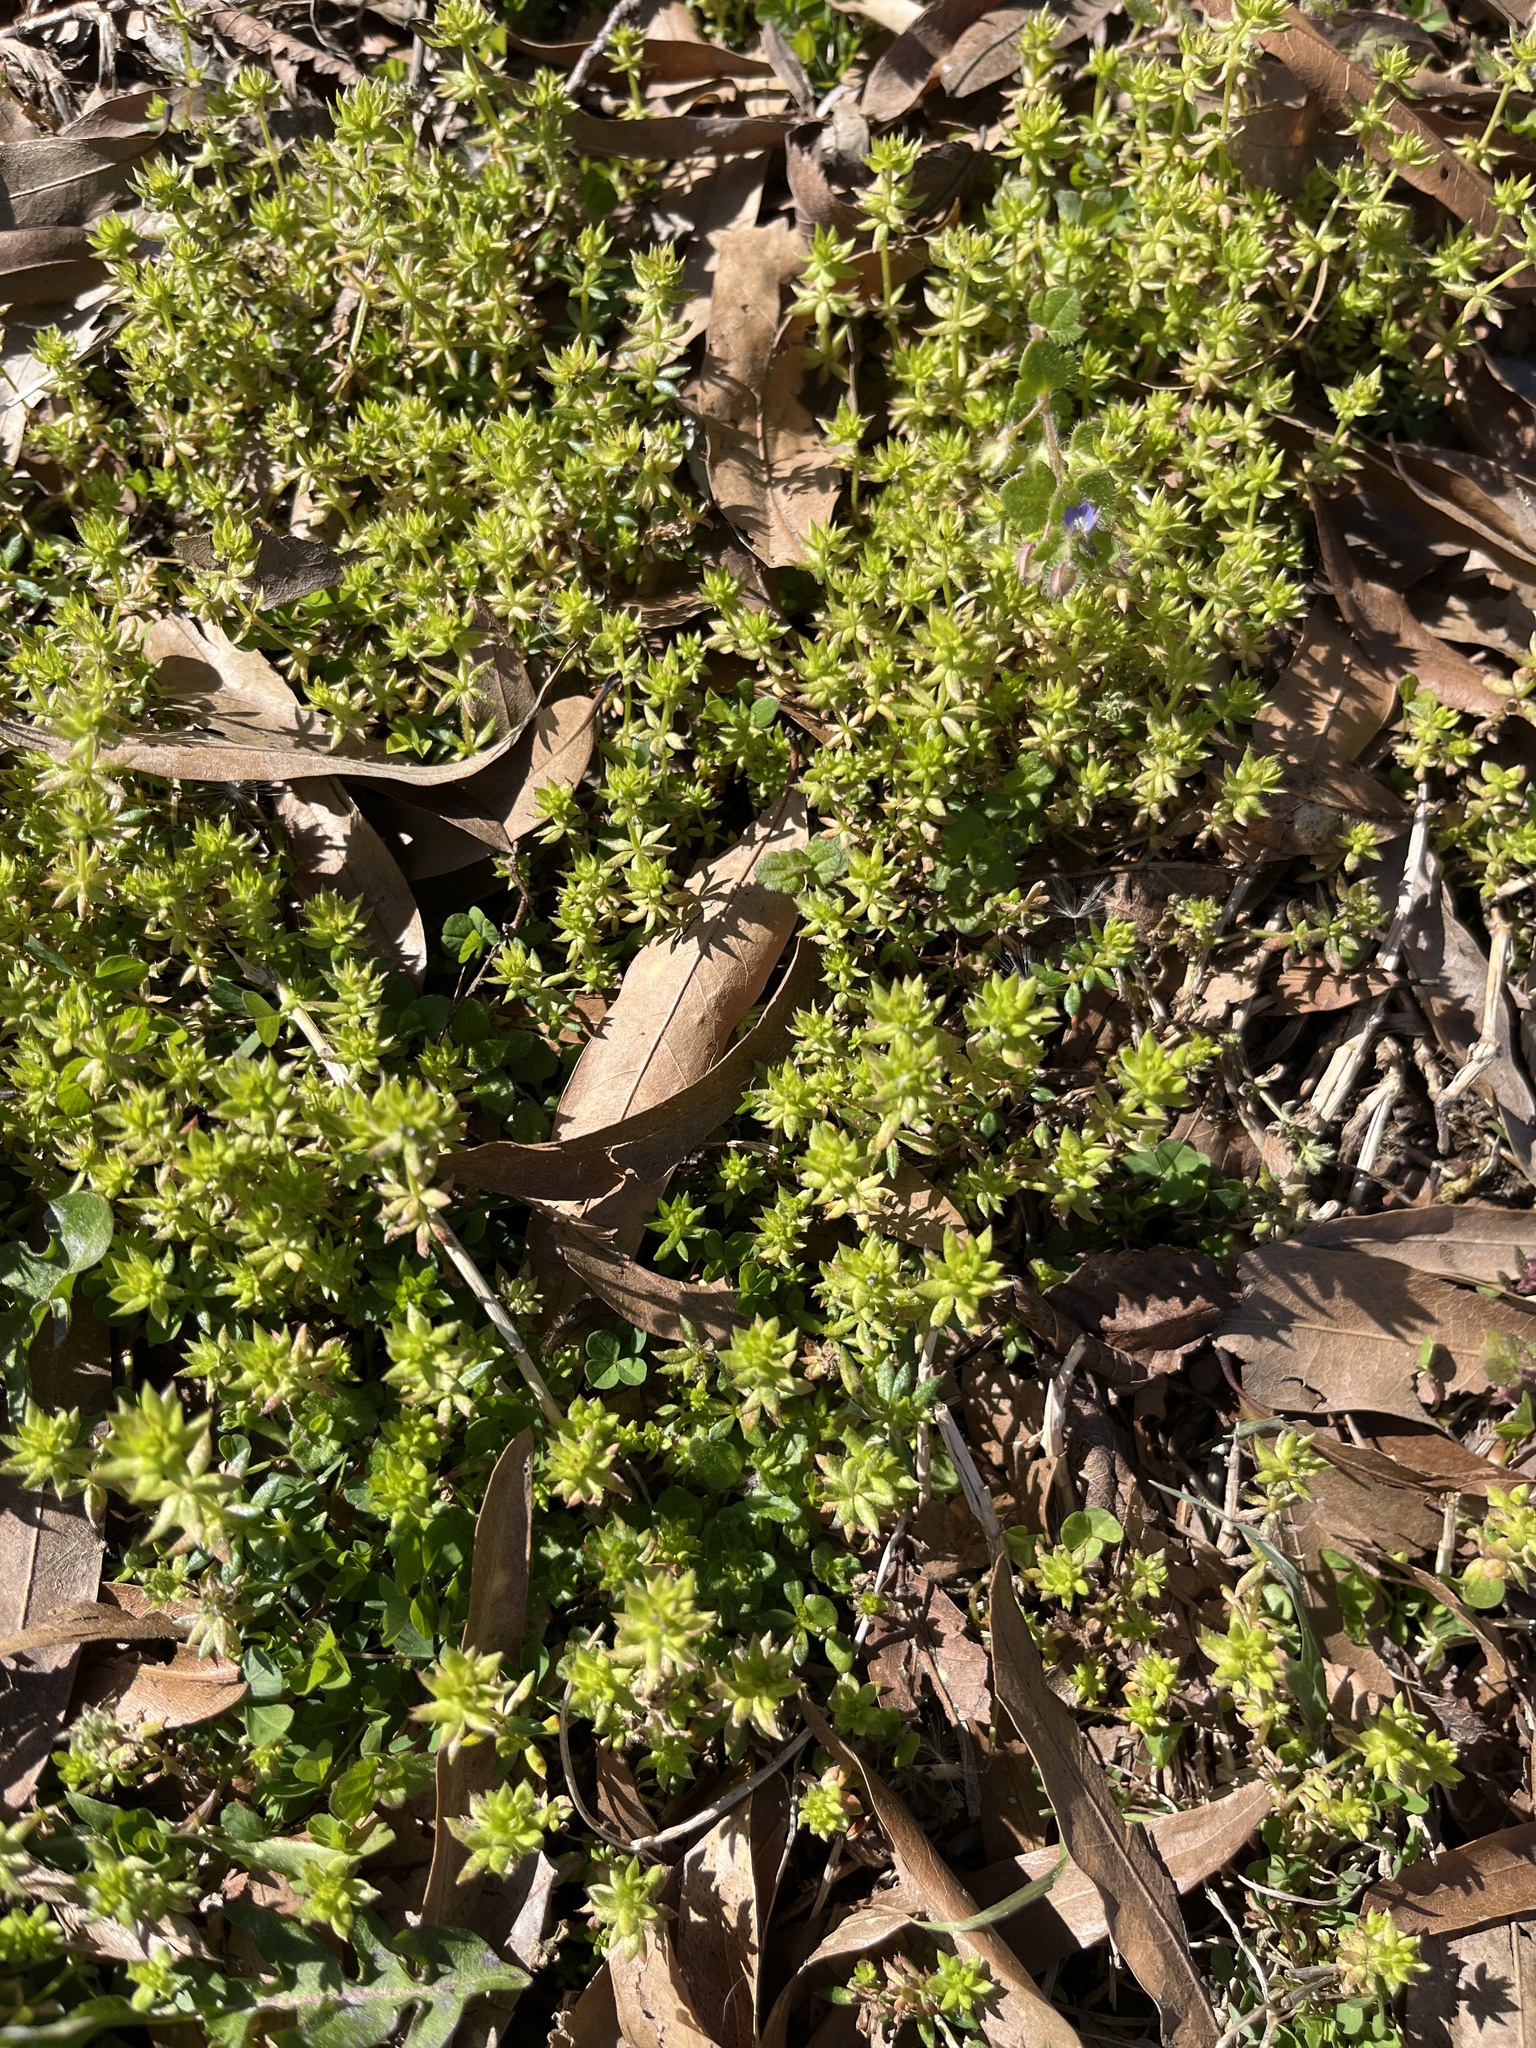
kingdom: Plantae
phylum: Tracheophyta
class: Magnoliopsida
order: Gentianales
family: Rubiaceae
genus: Sherardia
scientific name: Sherardia arvensis
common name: Field madder
